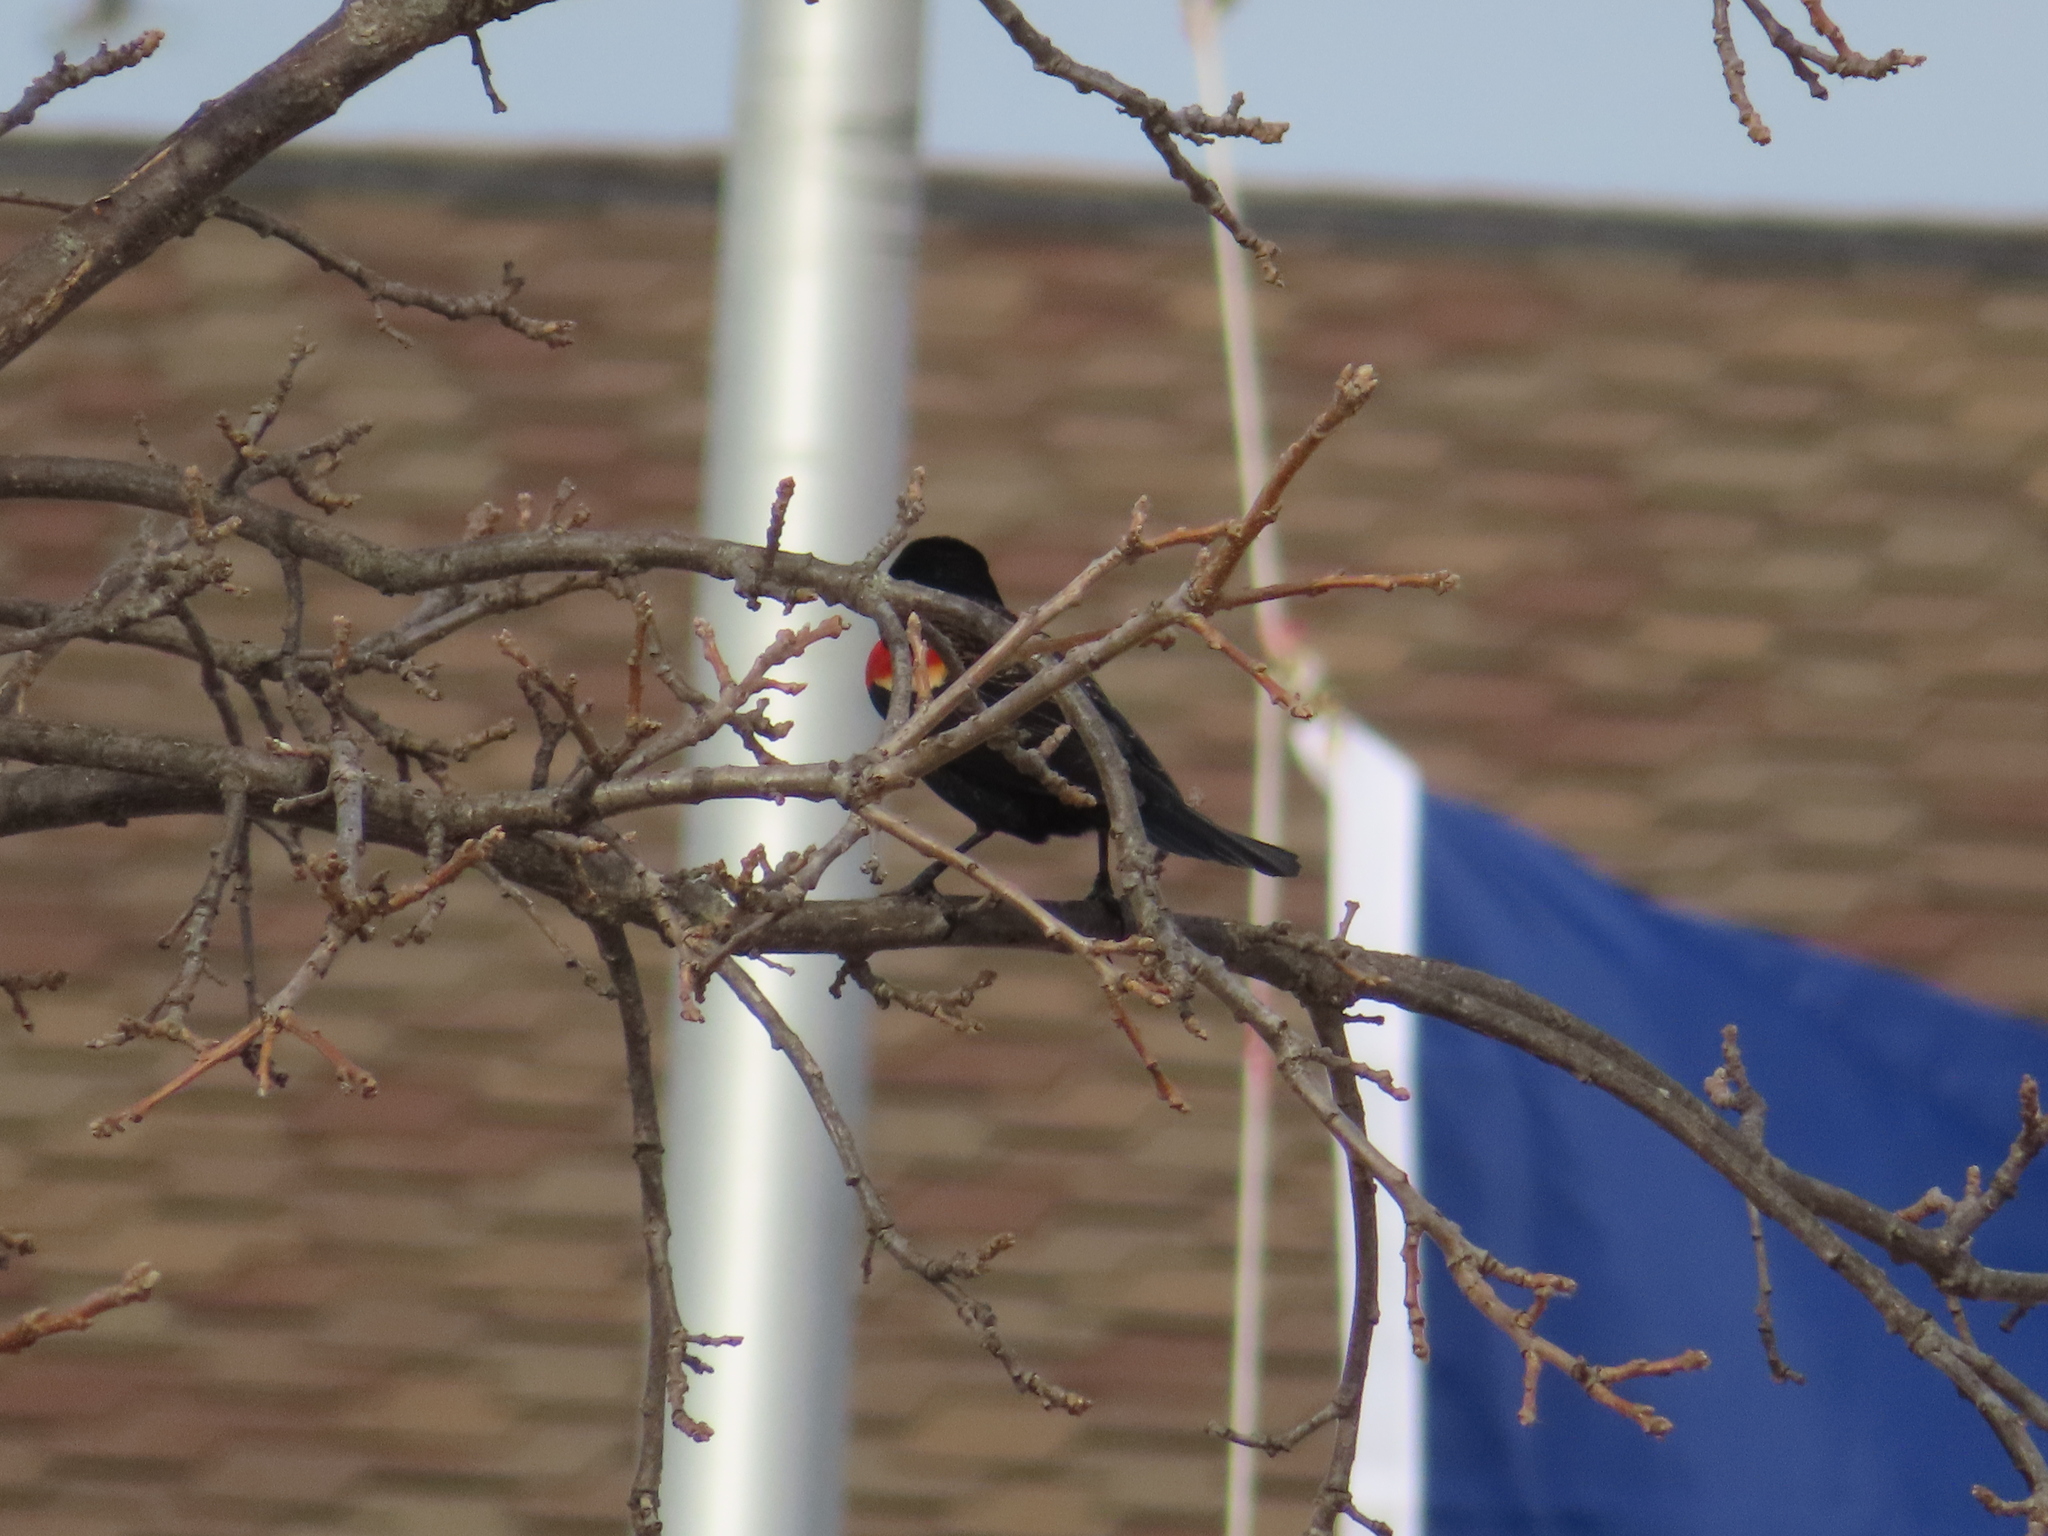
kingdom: Animalia
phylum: Chordata
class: Aves
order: Passeriformes
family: Icteridae
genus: Agelaius
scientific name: Agelaius phoeniceus
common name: Red-winged blackbird
